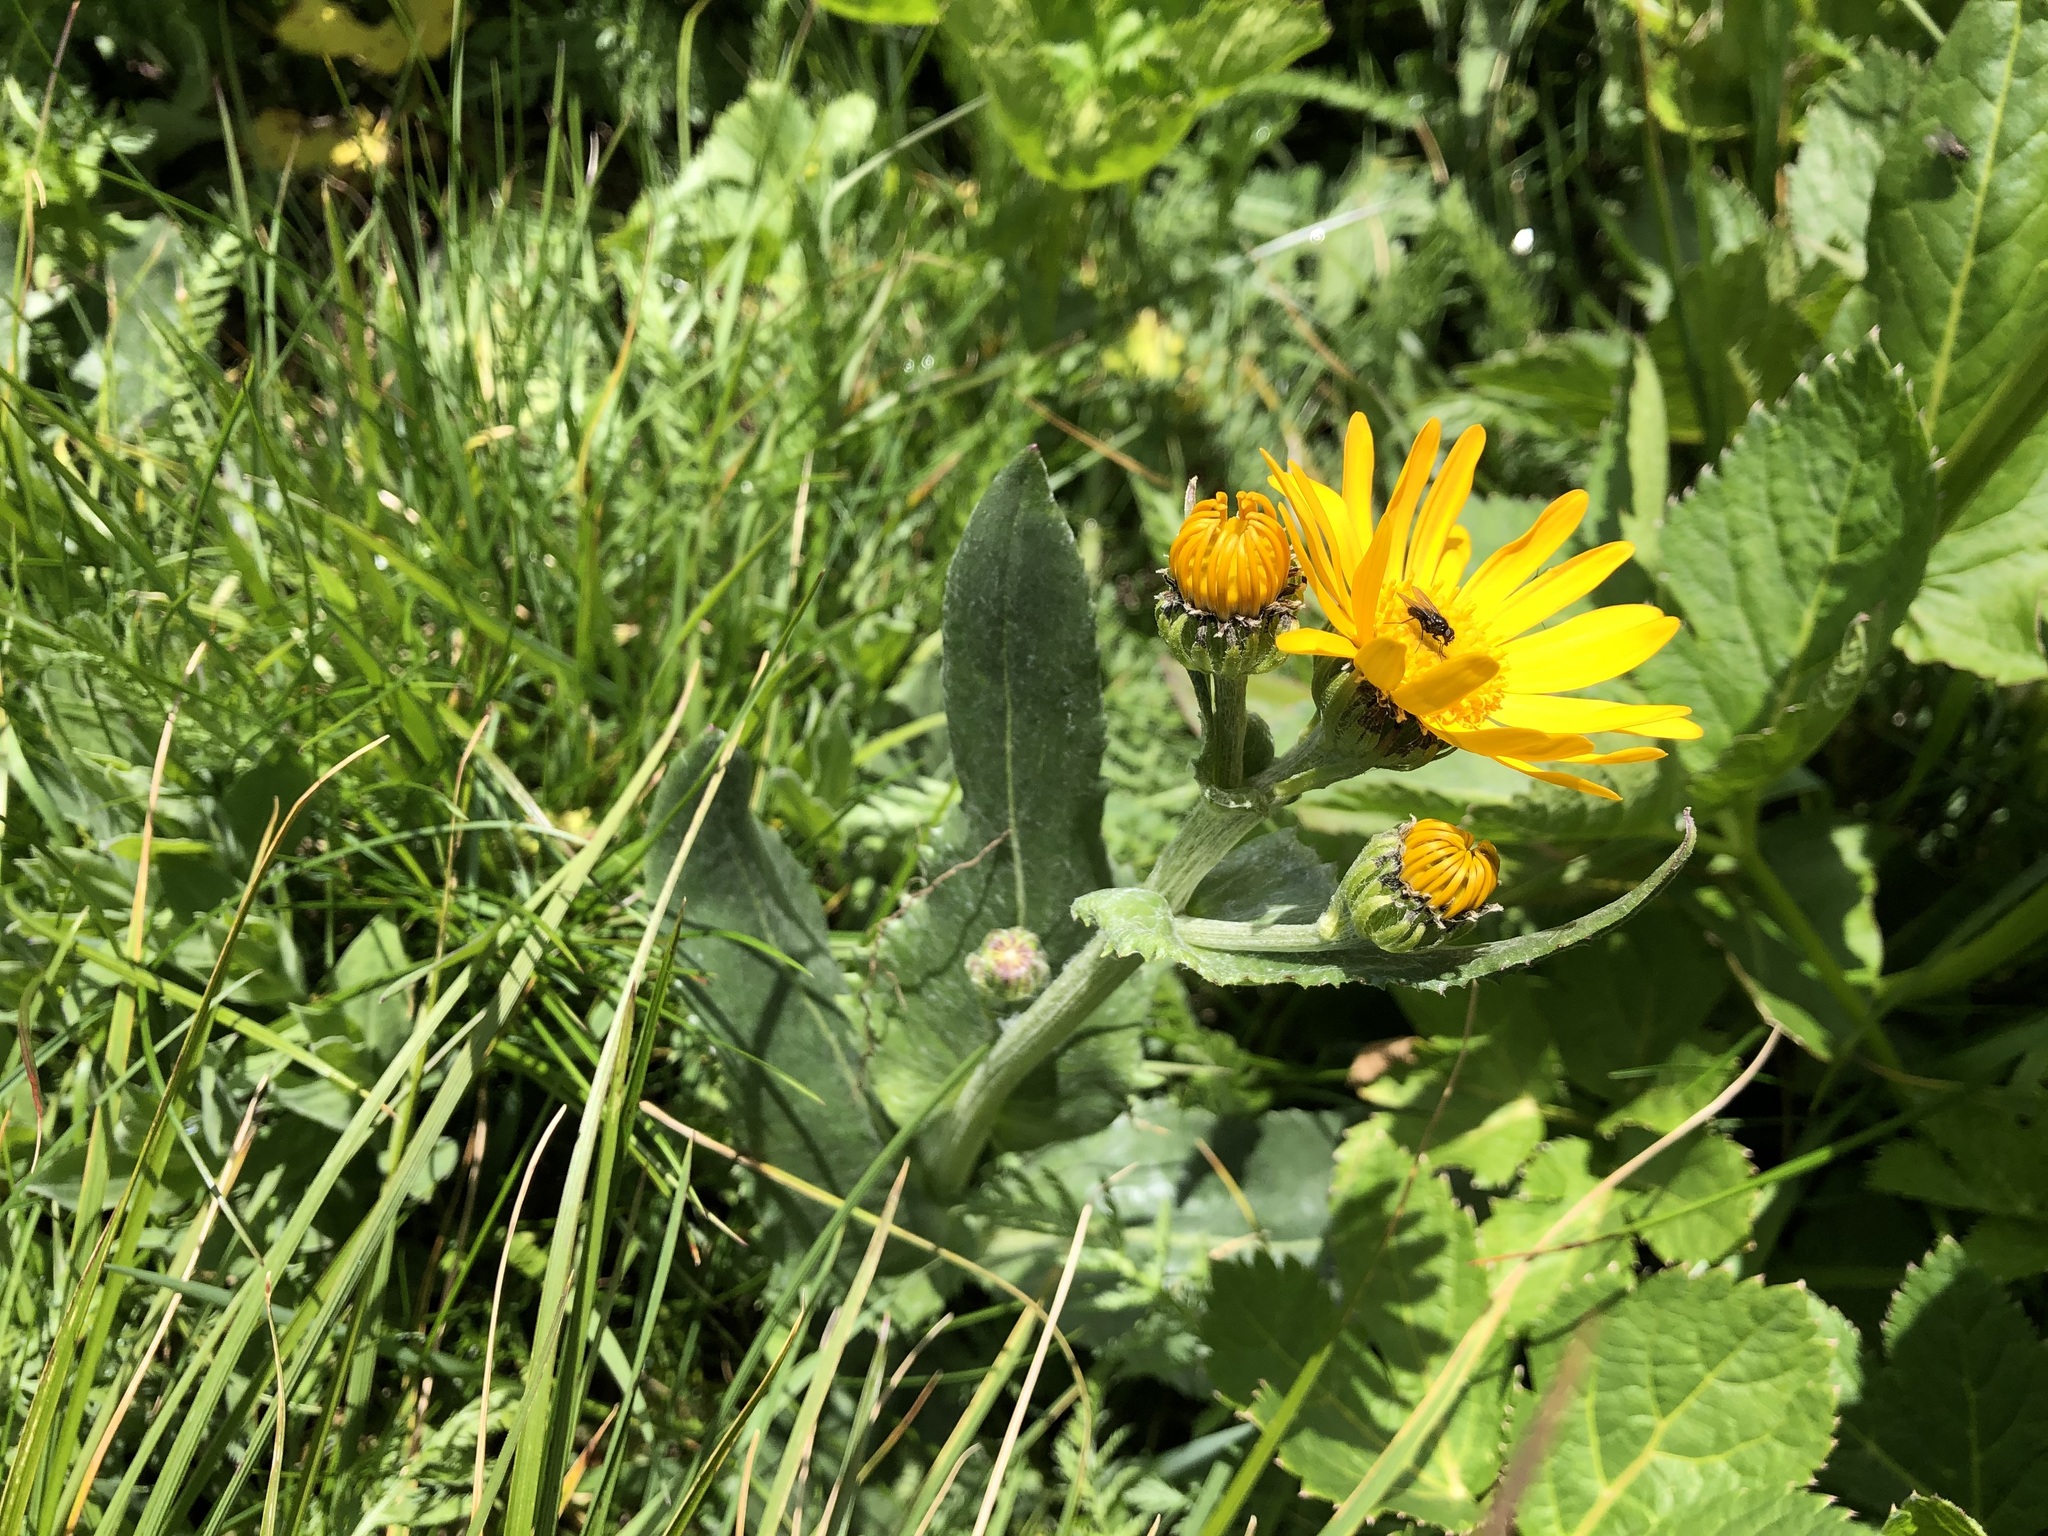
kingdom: Plantae
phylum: Tracheophyta
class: Magnoliopsida
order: Asterales
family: Asteraceae
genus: Senecio
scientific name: Senecio doronicum
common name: Chamois ragwort
